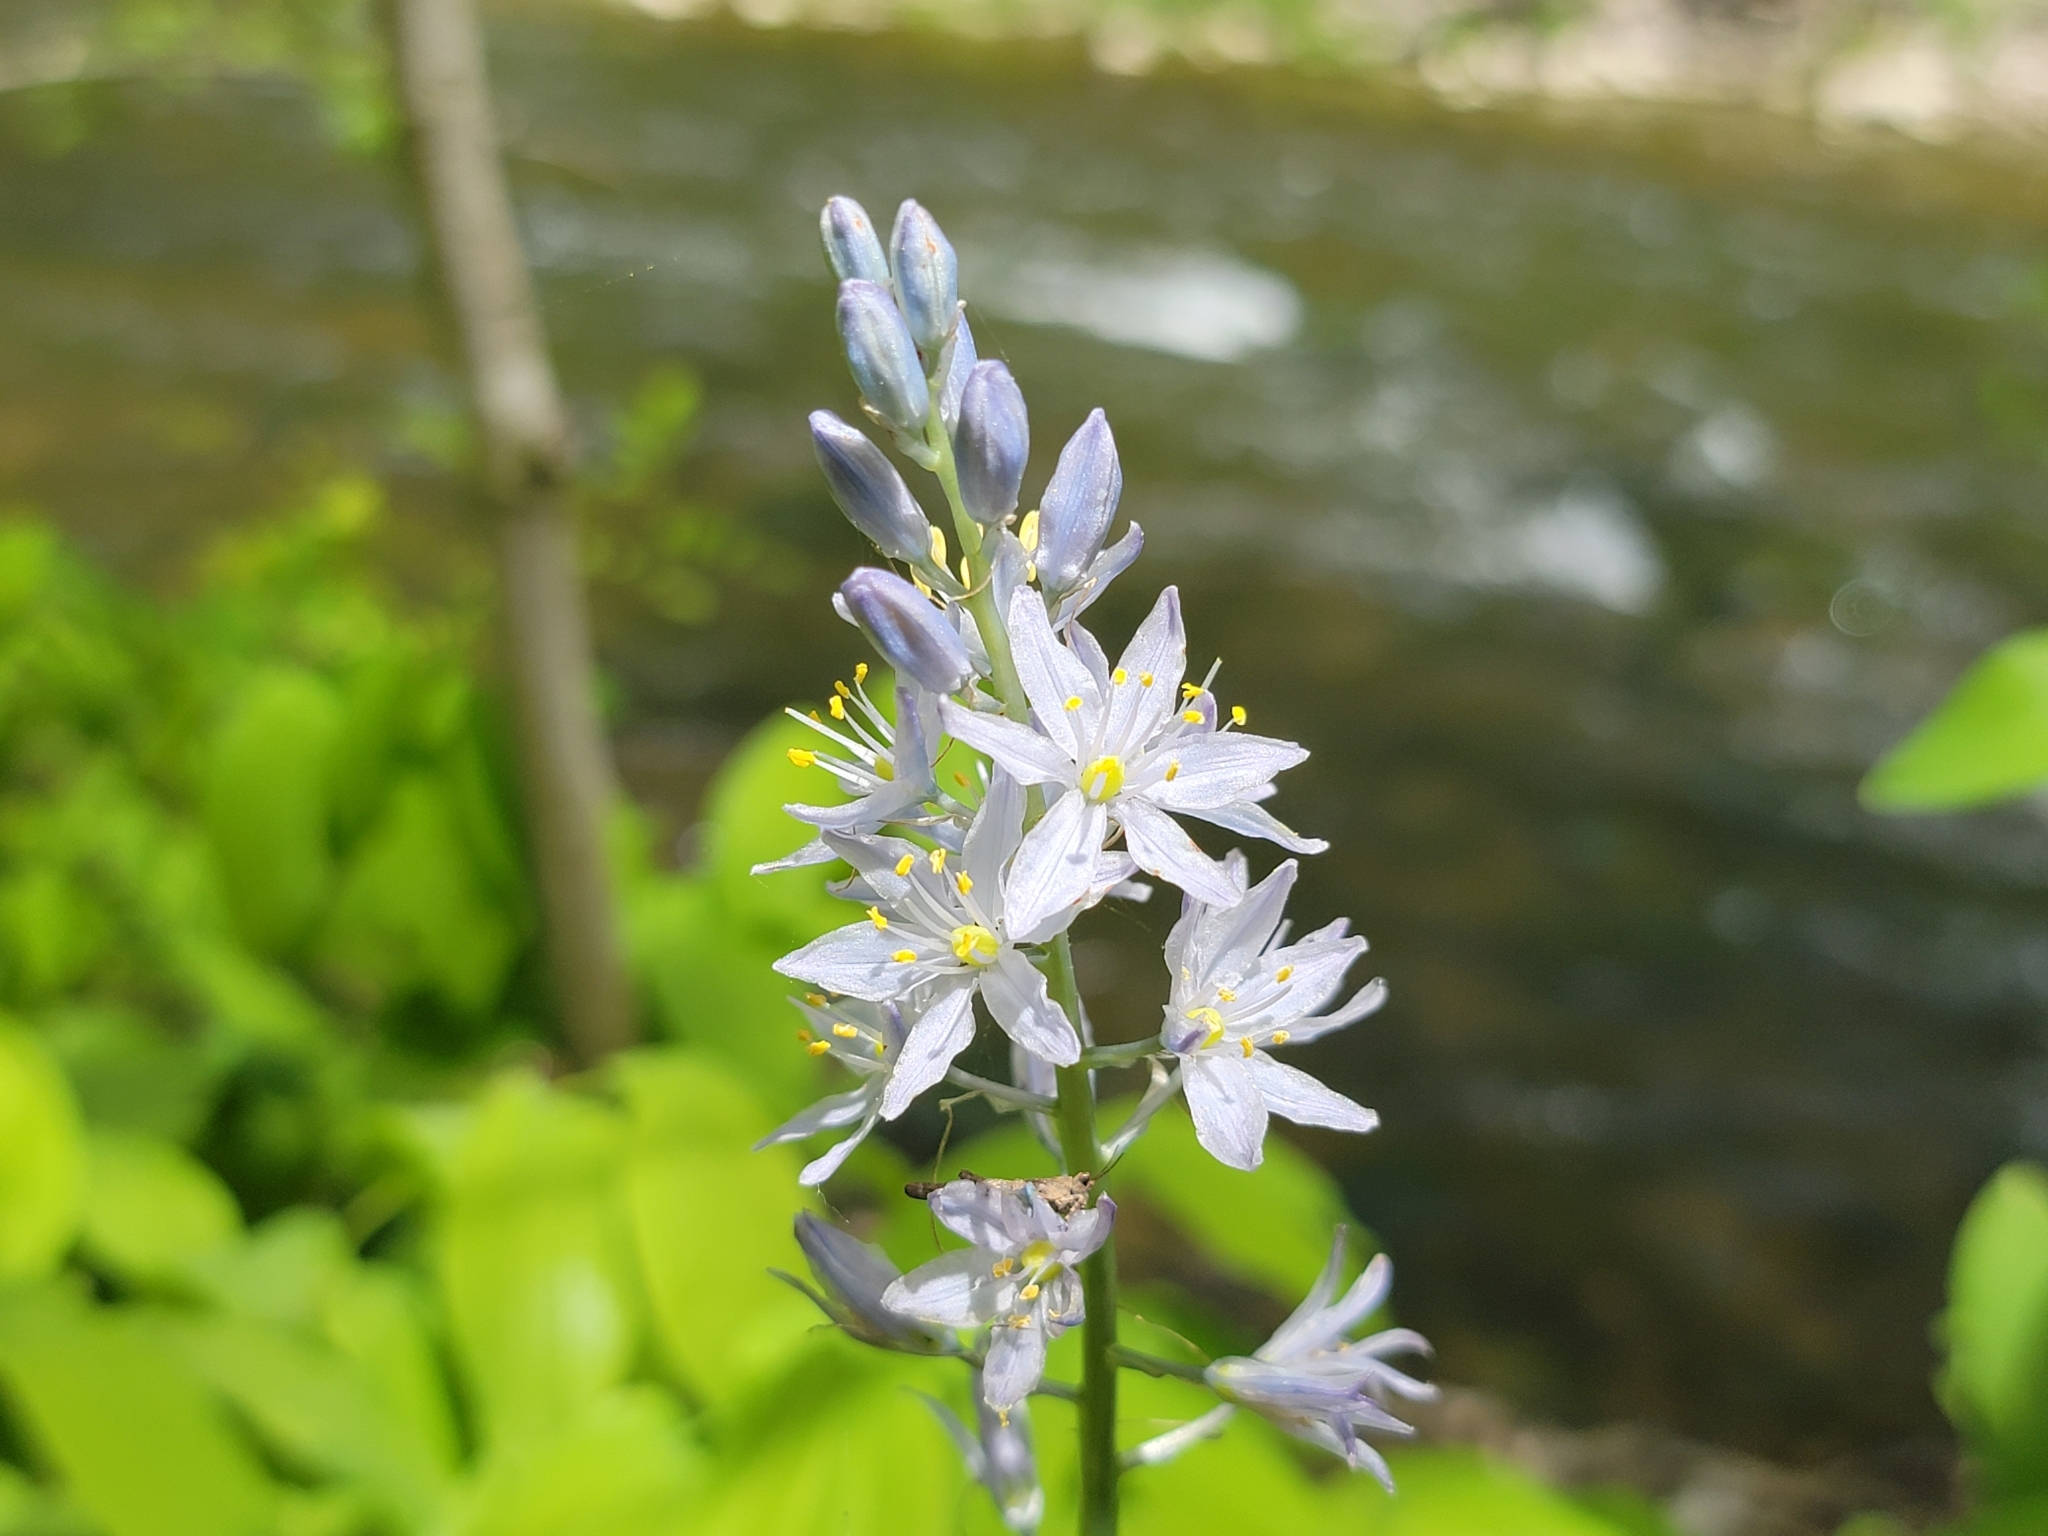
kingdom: Plantae
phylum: Tracheophyta
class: Liliopsida
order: Asparagales
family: Asparagaceae
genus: Camassia
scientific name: Camassia scilloides
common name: Wild hyacinth
